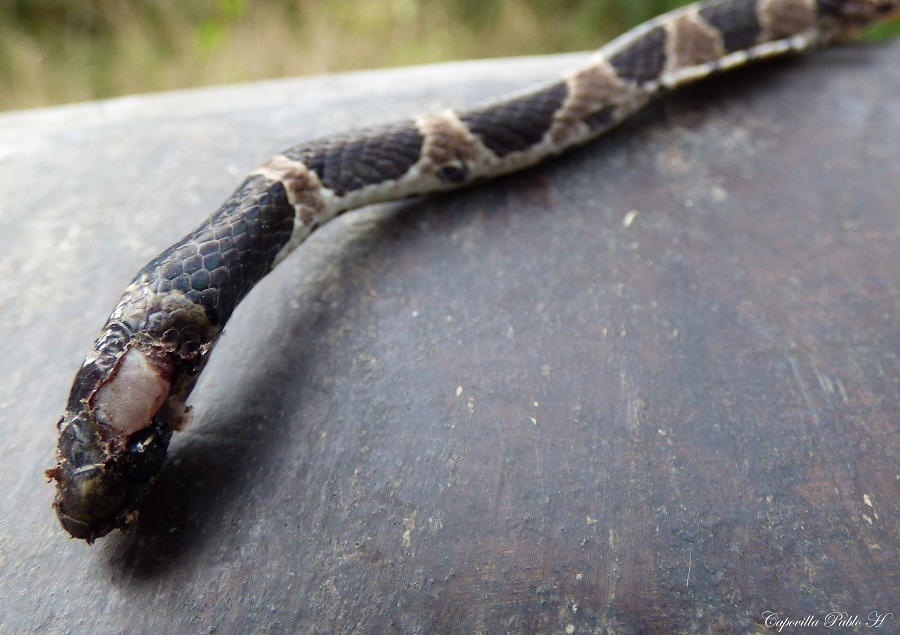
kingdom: Animalia
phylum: Chordata
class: Squamata
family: Colubridae
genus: Dipsas
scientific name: Dipsas turgida
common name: Bolivian tree snake
